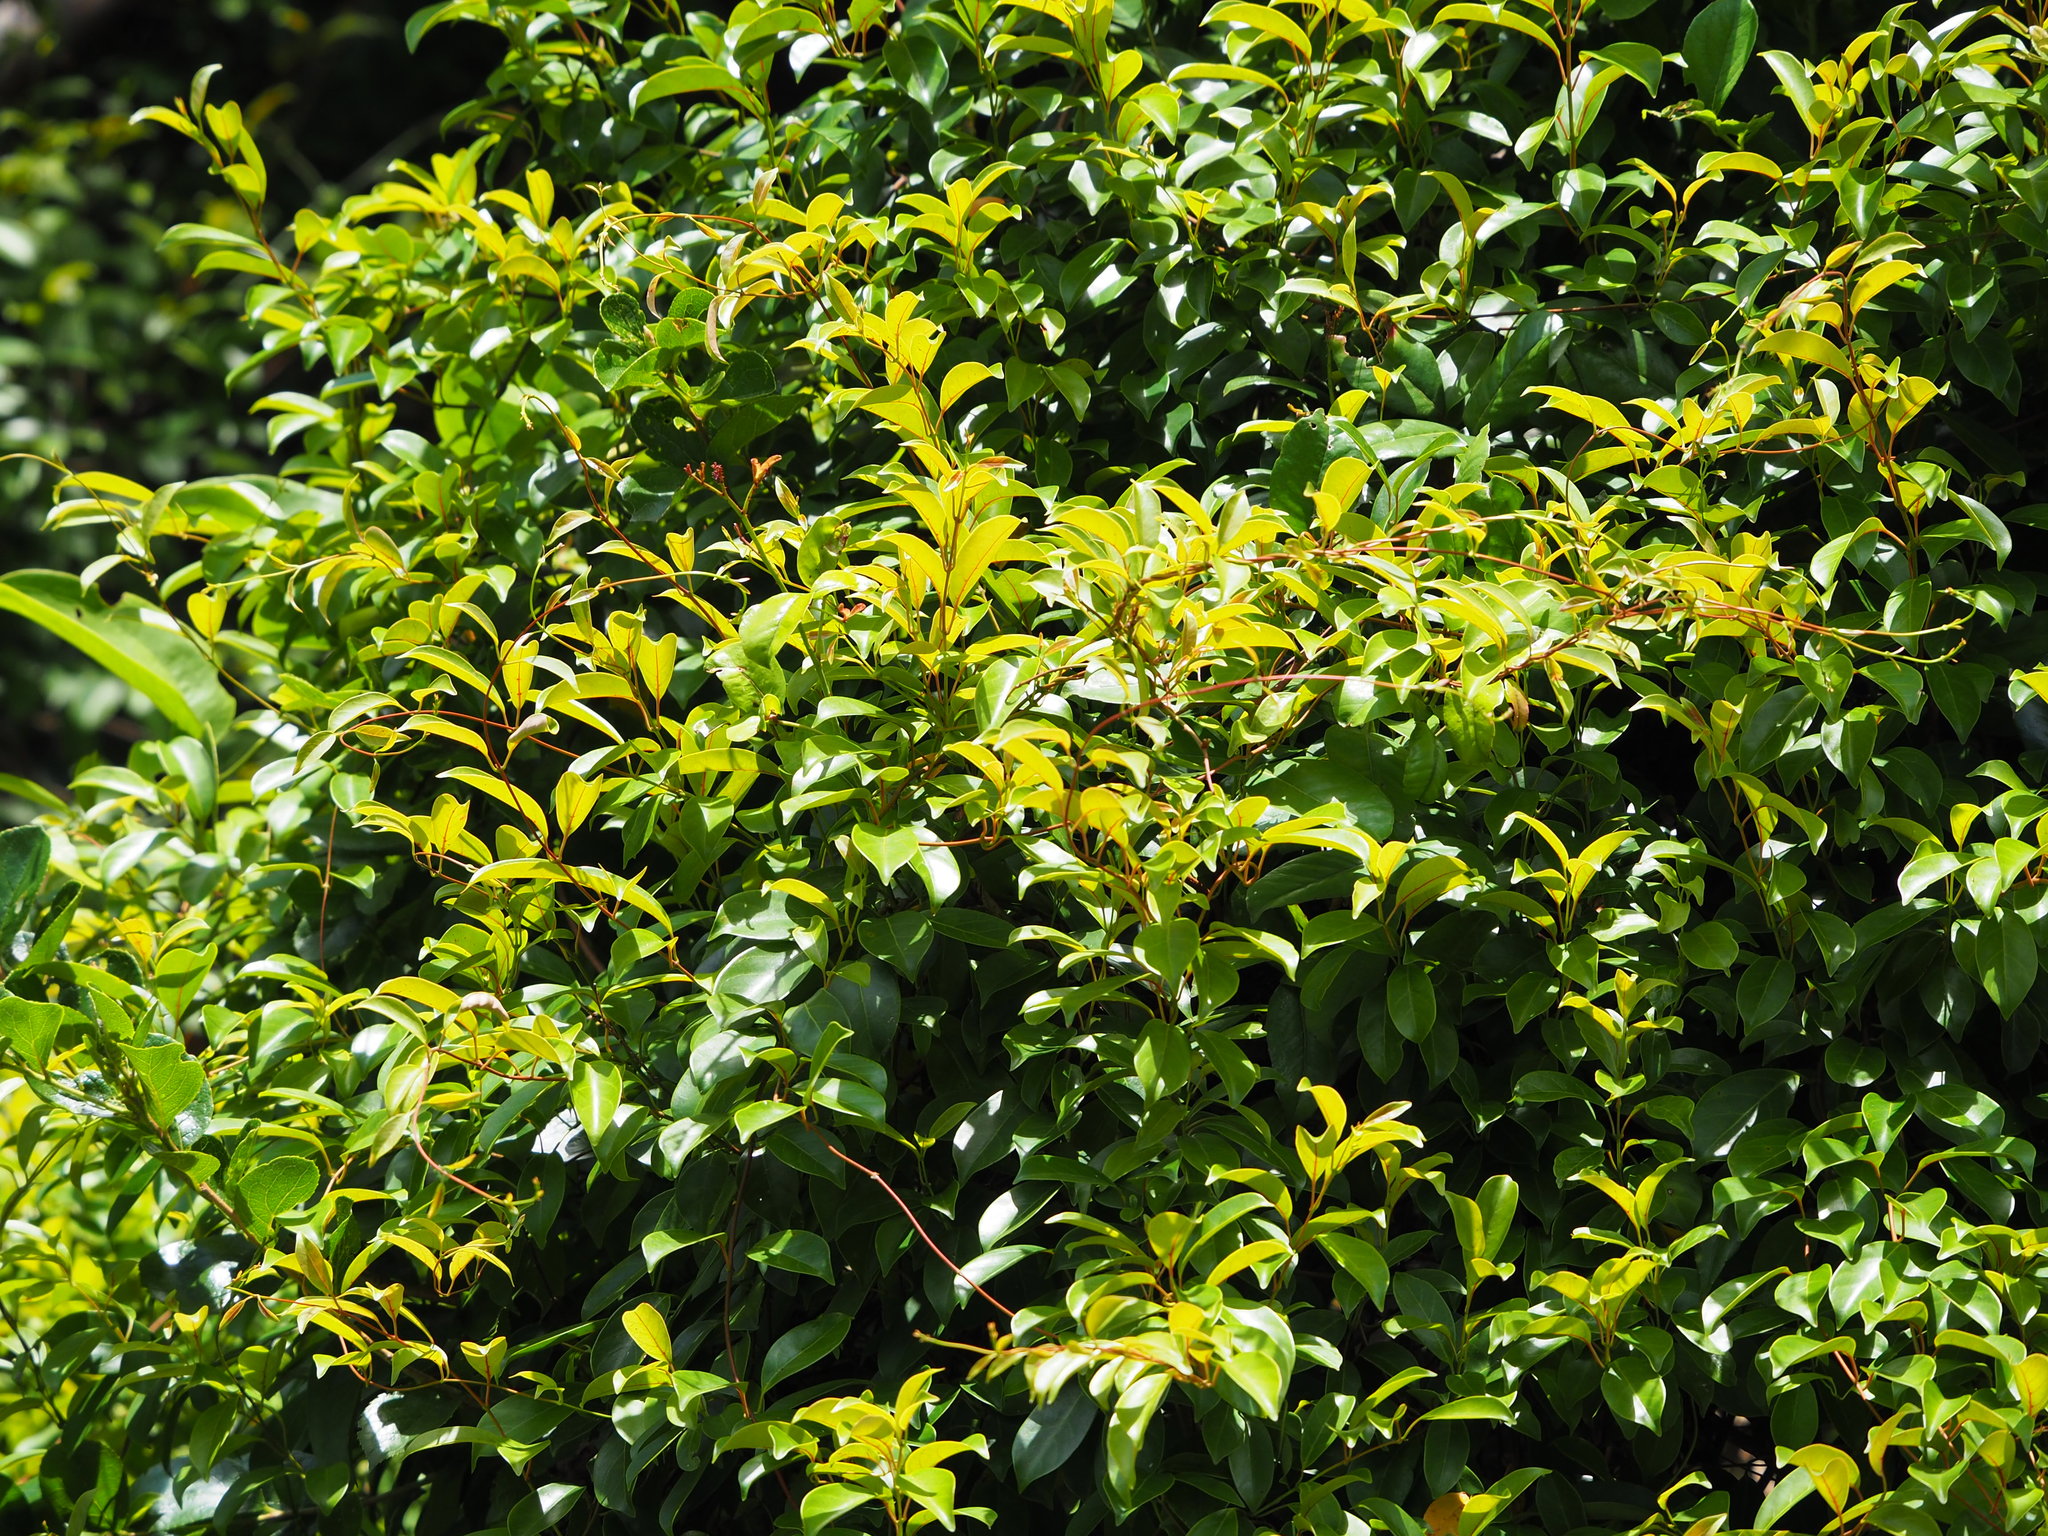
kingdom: Plantae
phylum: Tracheophyta
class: Magnoliopsida
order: Gentianales
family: Apocynaceae
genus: Urceola
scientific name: Urceola rosea
